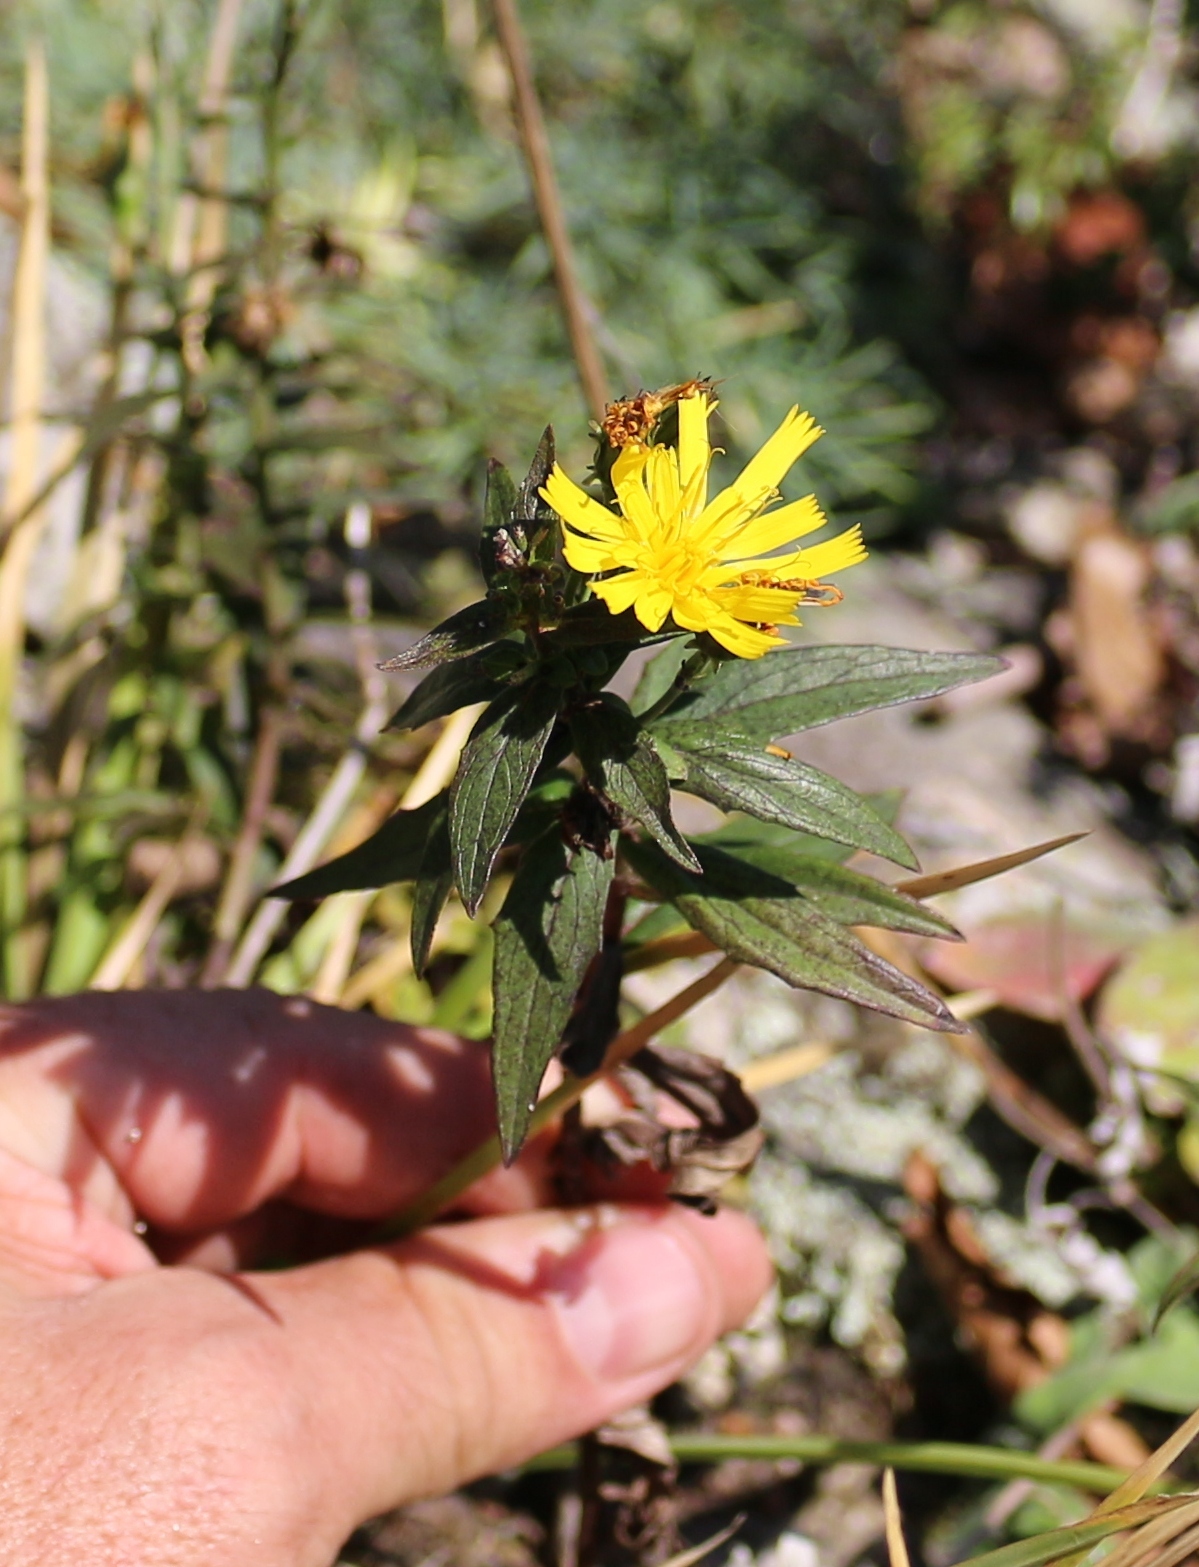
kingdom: Plantae
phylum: Tracheophyta
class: Magnoliopsida
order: Asterales
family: Asteraceae
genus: Hieracium
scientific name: Hieracium umbellatum
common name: Northern hawkweed
